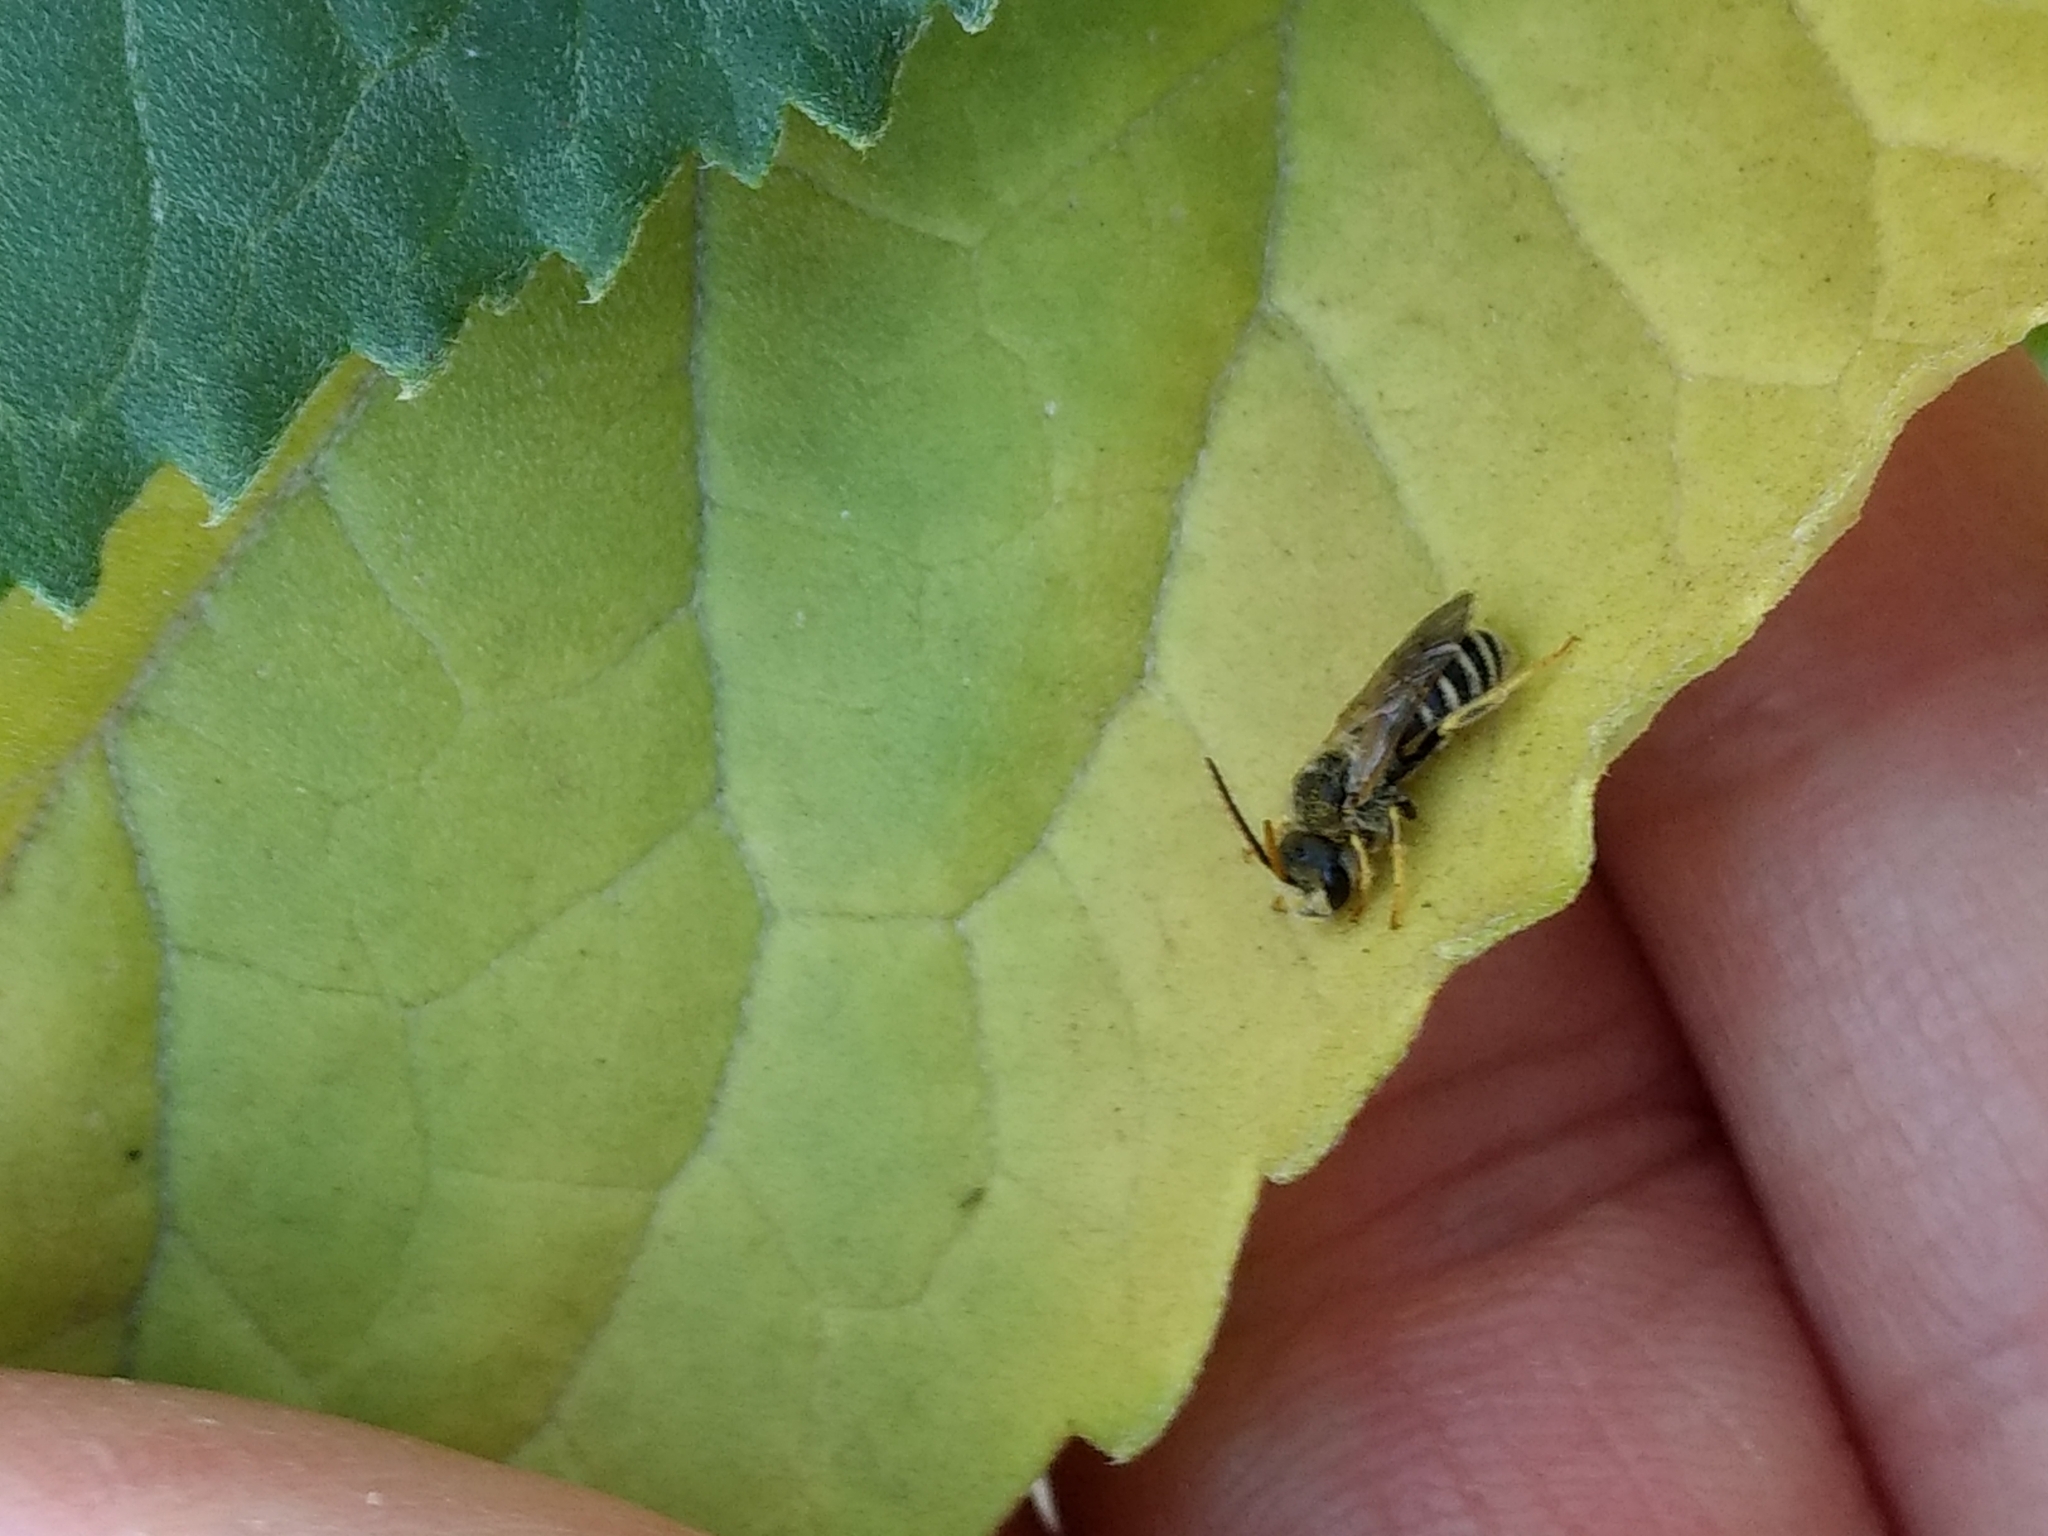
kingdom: Animalia
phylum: Arthropoda
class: Insecta
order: Hymenoptera
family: Halictidae
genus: Halictus
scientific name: Halictus ligatus
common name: Ligated furrow bee
